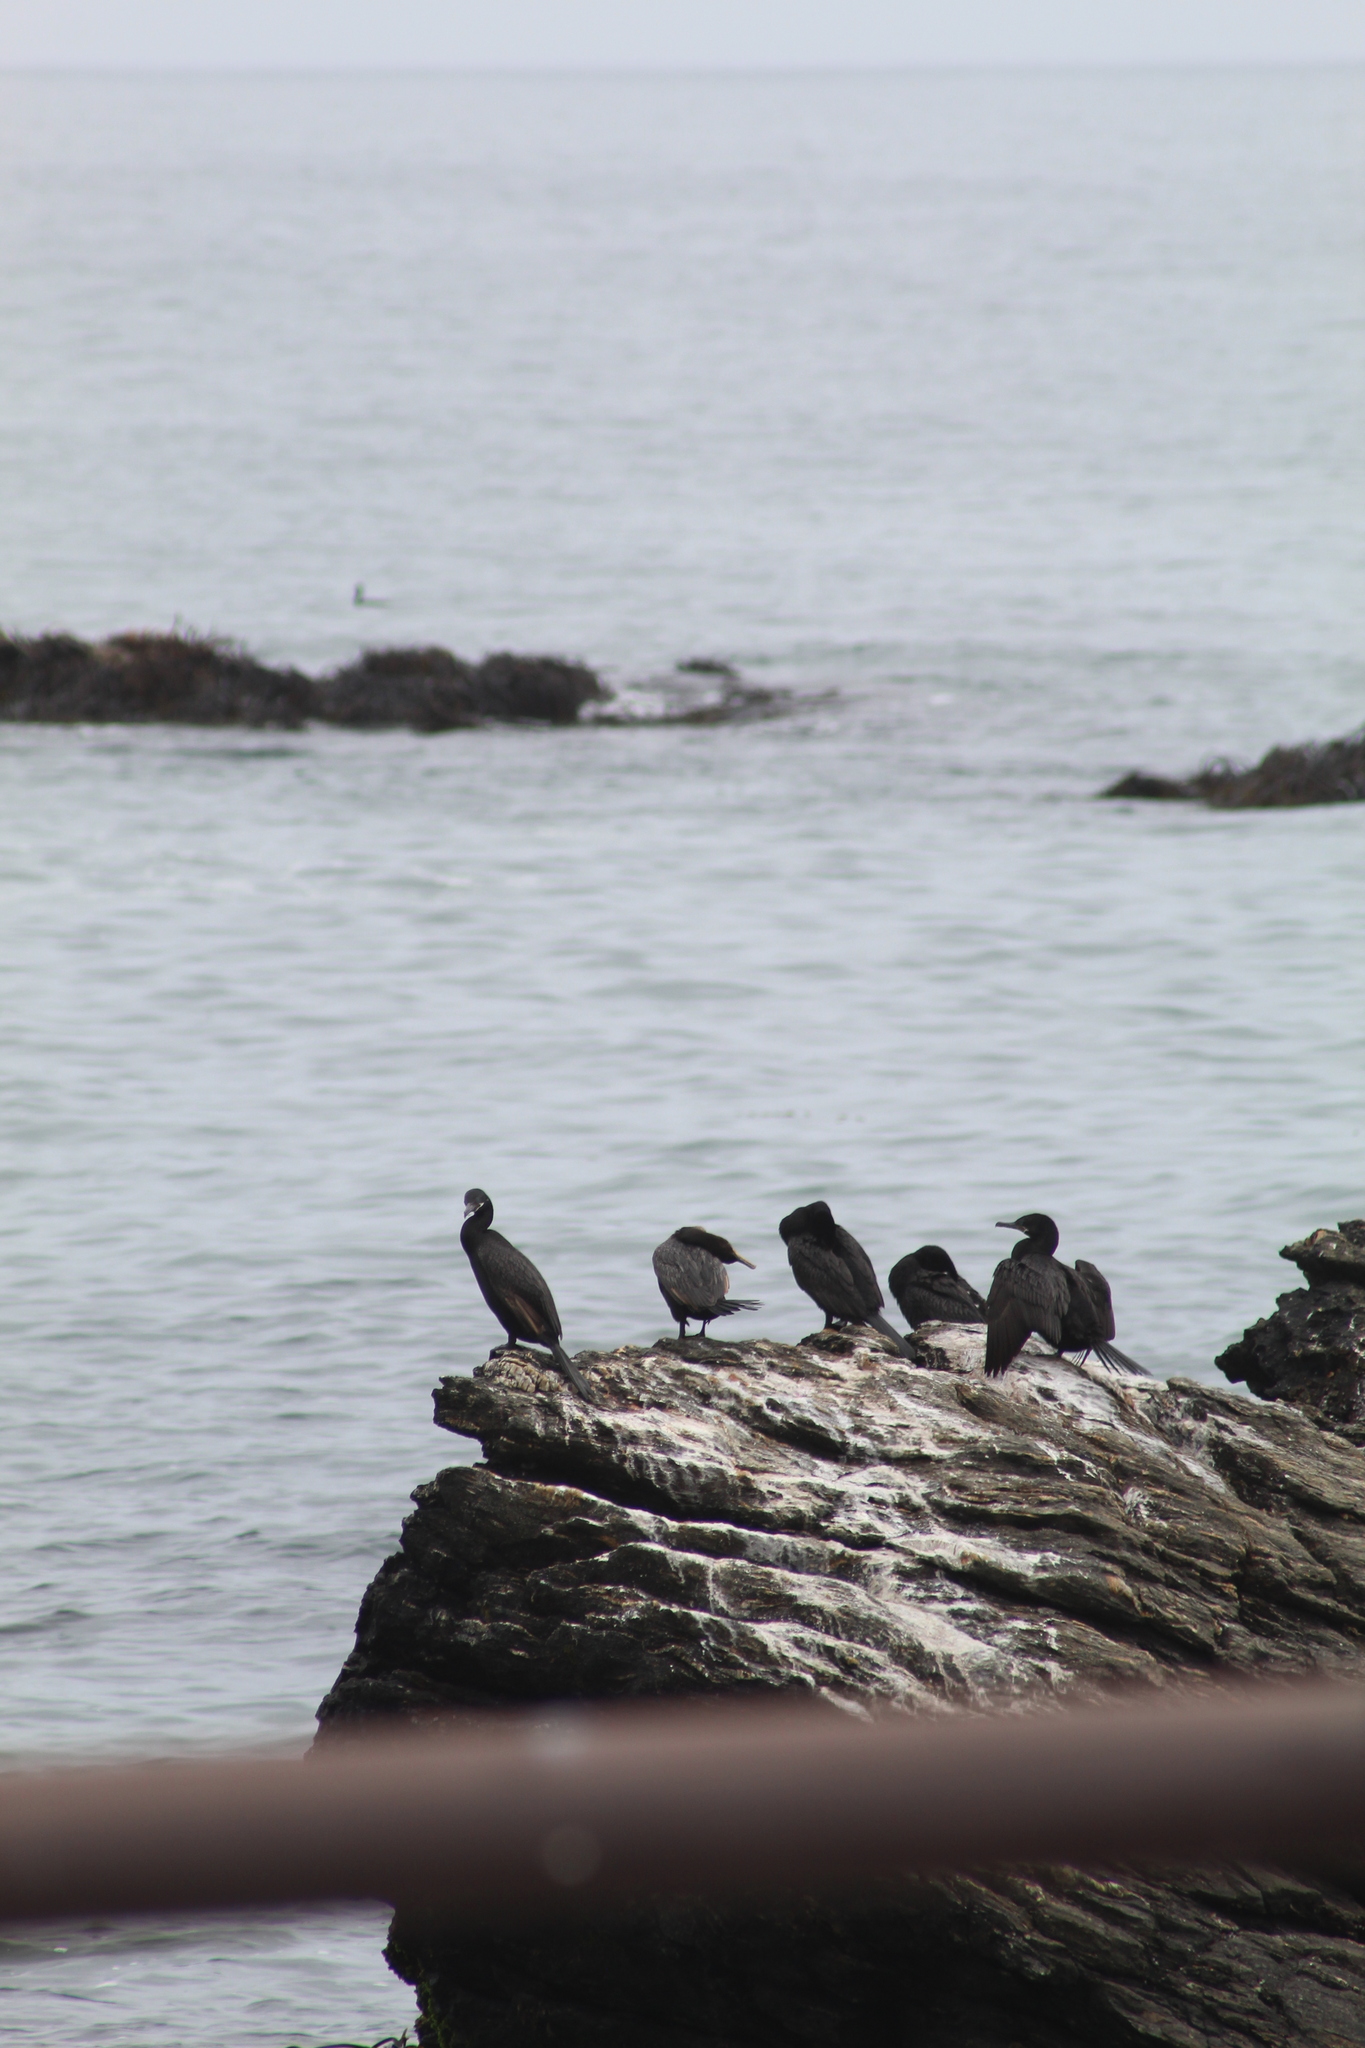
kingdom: Animalia
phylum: Chordata
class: Aves
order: Suliformes
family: Phalacrocoracidae
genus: Phalacrocorax
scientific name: Phalacrocorax brasilianus
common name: Neotropic cormorant
